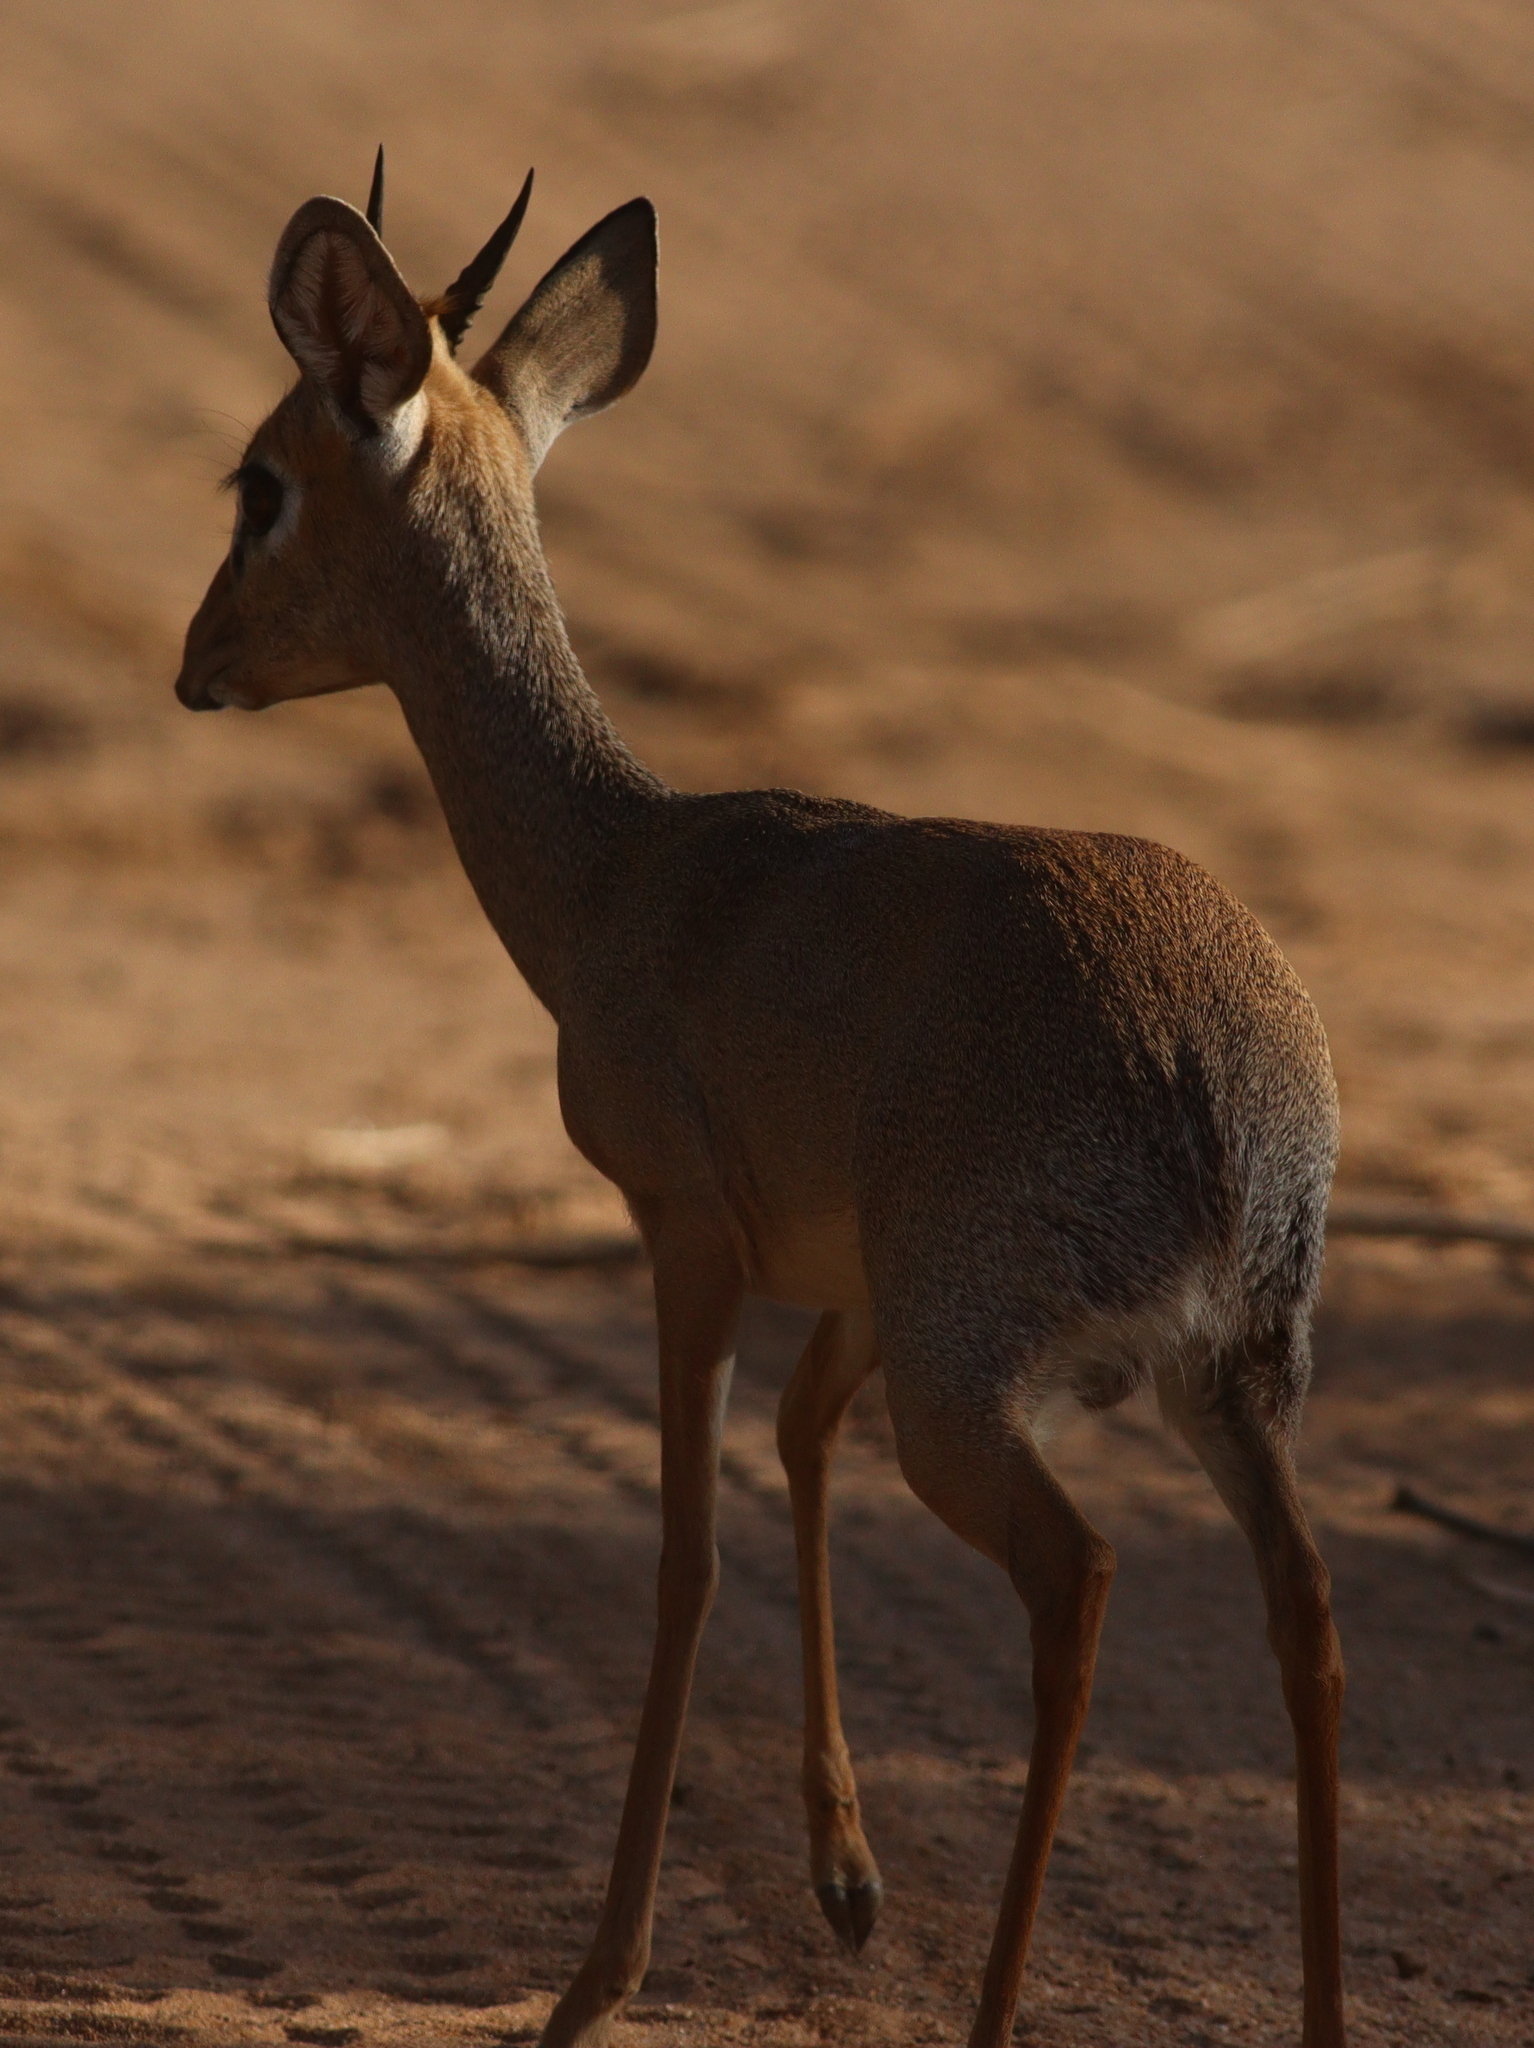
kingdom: Animalia
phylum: Chordata
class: Mammalia
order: Artiodactyla
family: Bovidae
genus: Madoqua
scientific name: Madoqua kirkii
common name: Kirk's dik-dik
